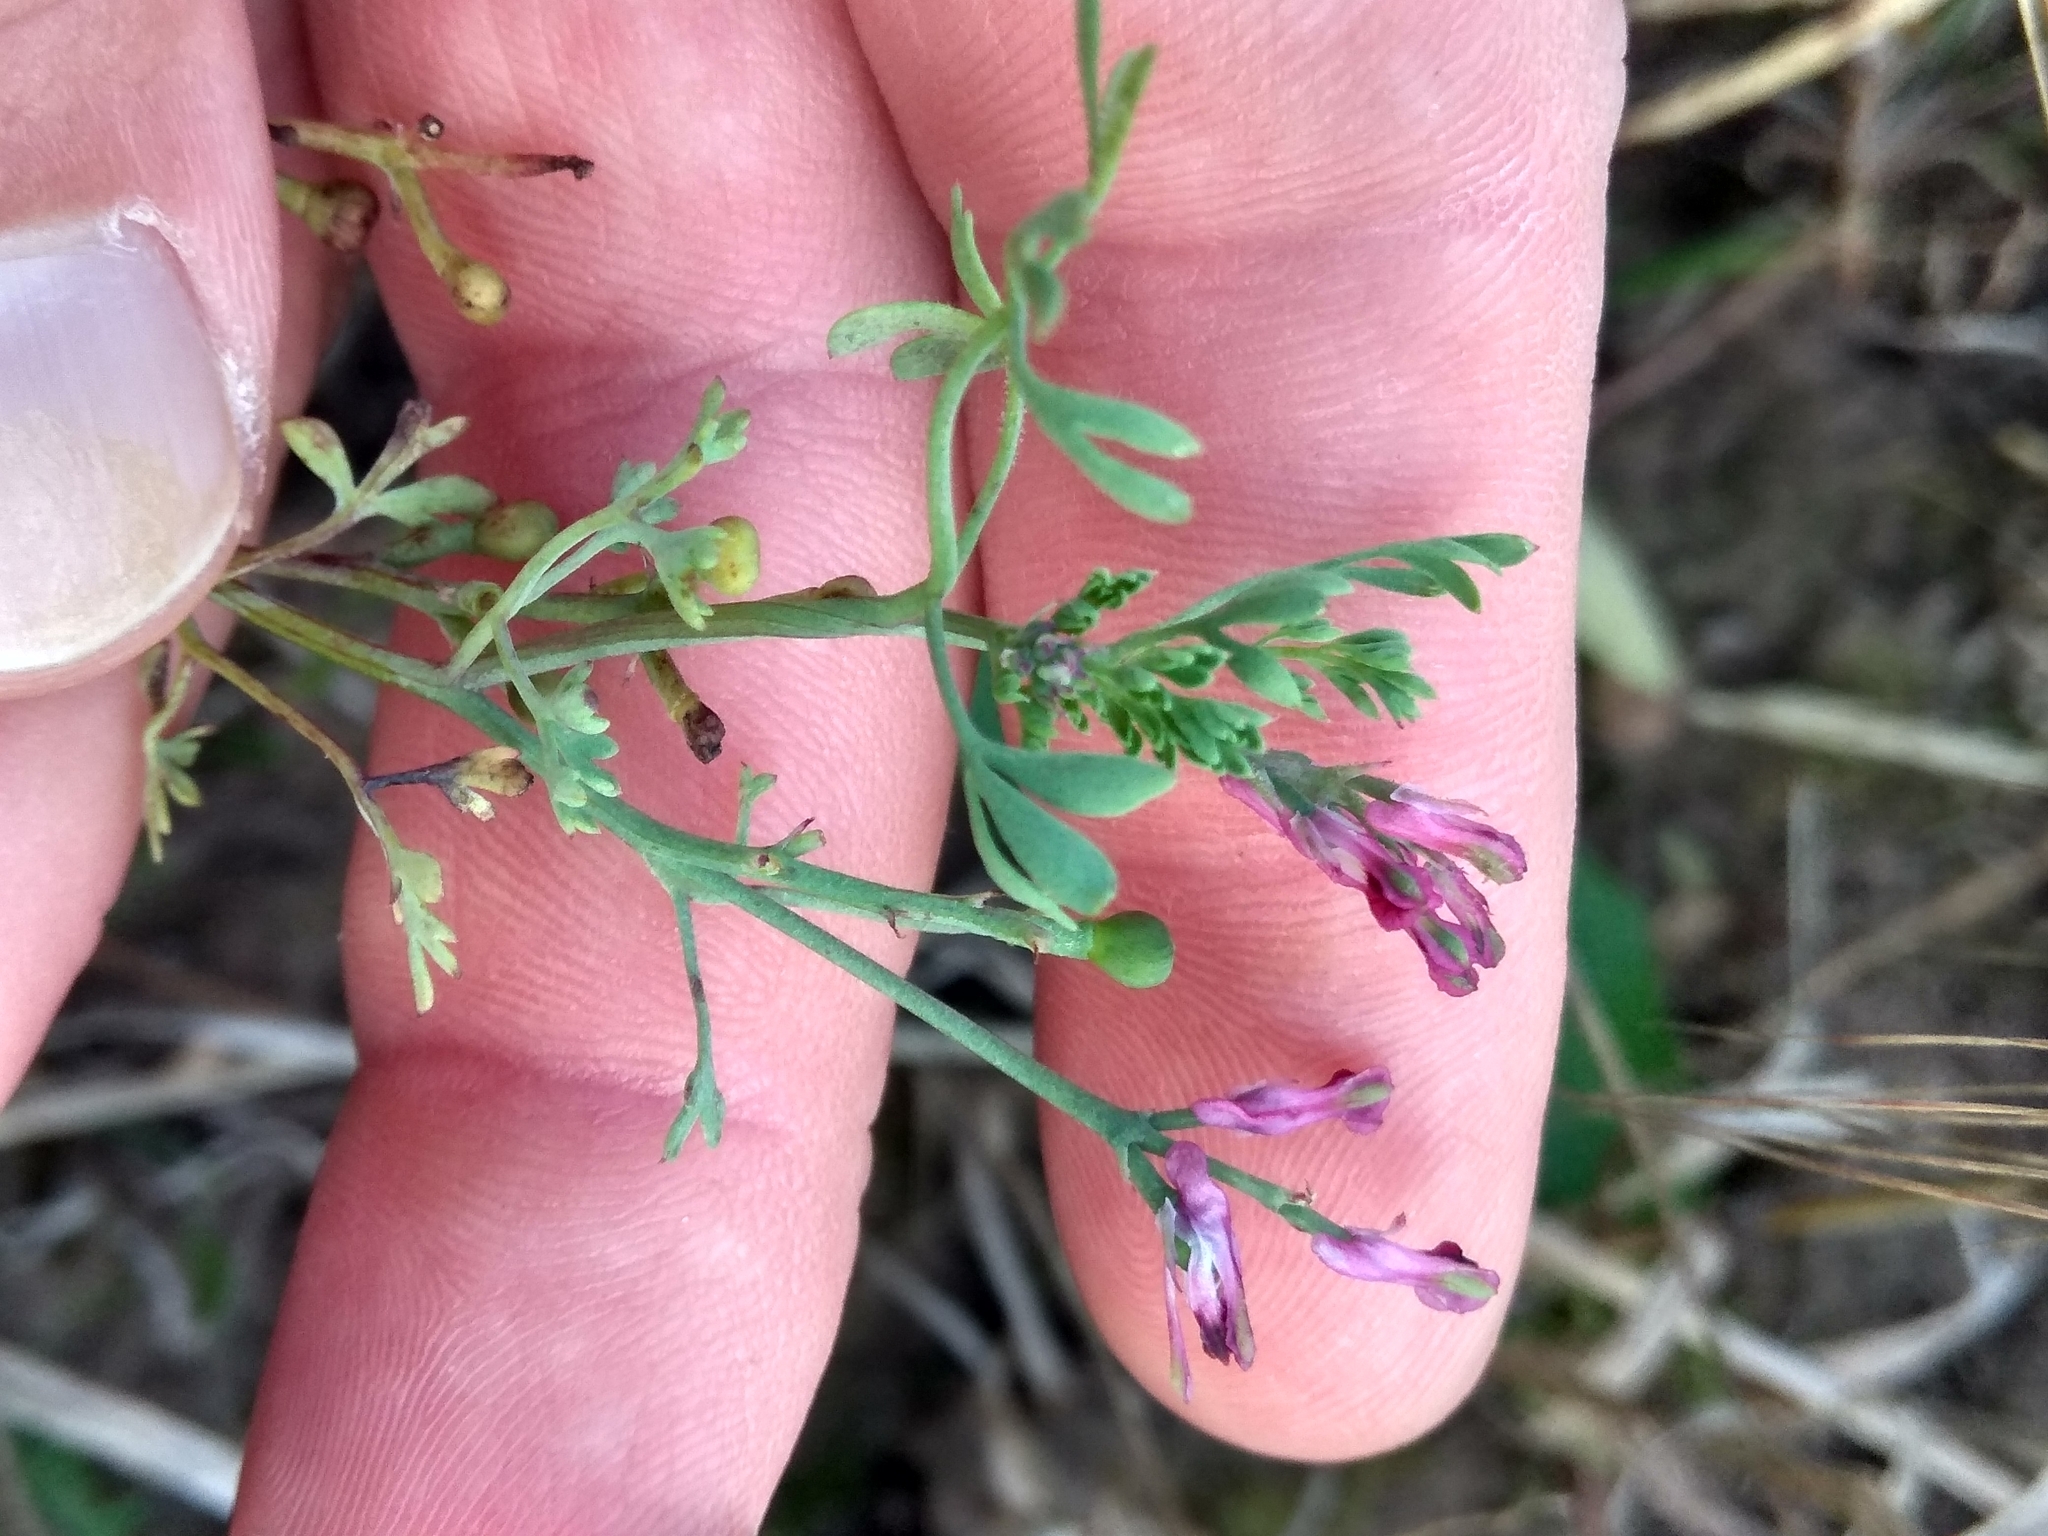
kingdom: Plantae
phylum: Tracheophyta
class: Magnoliopsida
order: Ranunculales
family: Papaveraceae
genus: Fumaria
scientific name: Fumaria officinalis
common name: Common fumitory
